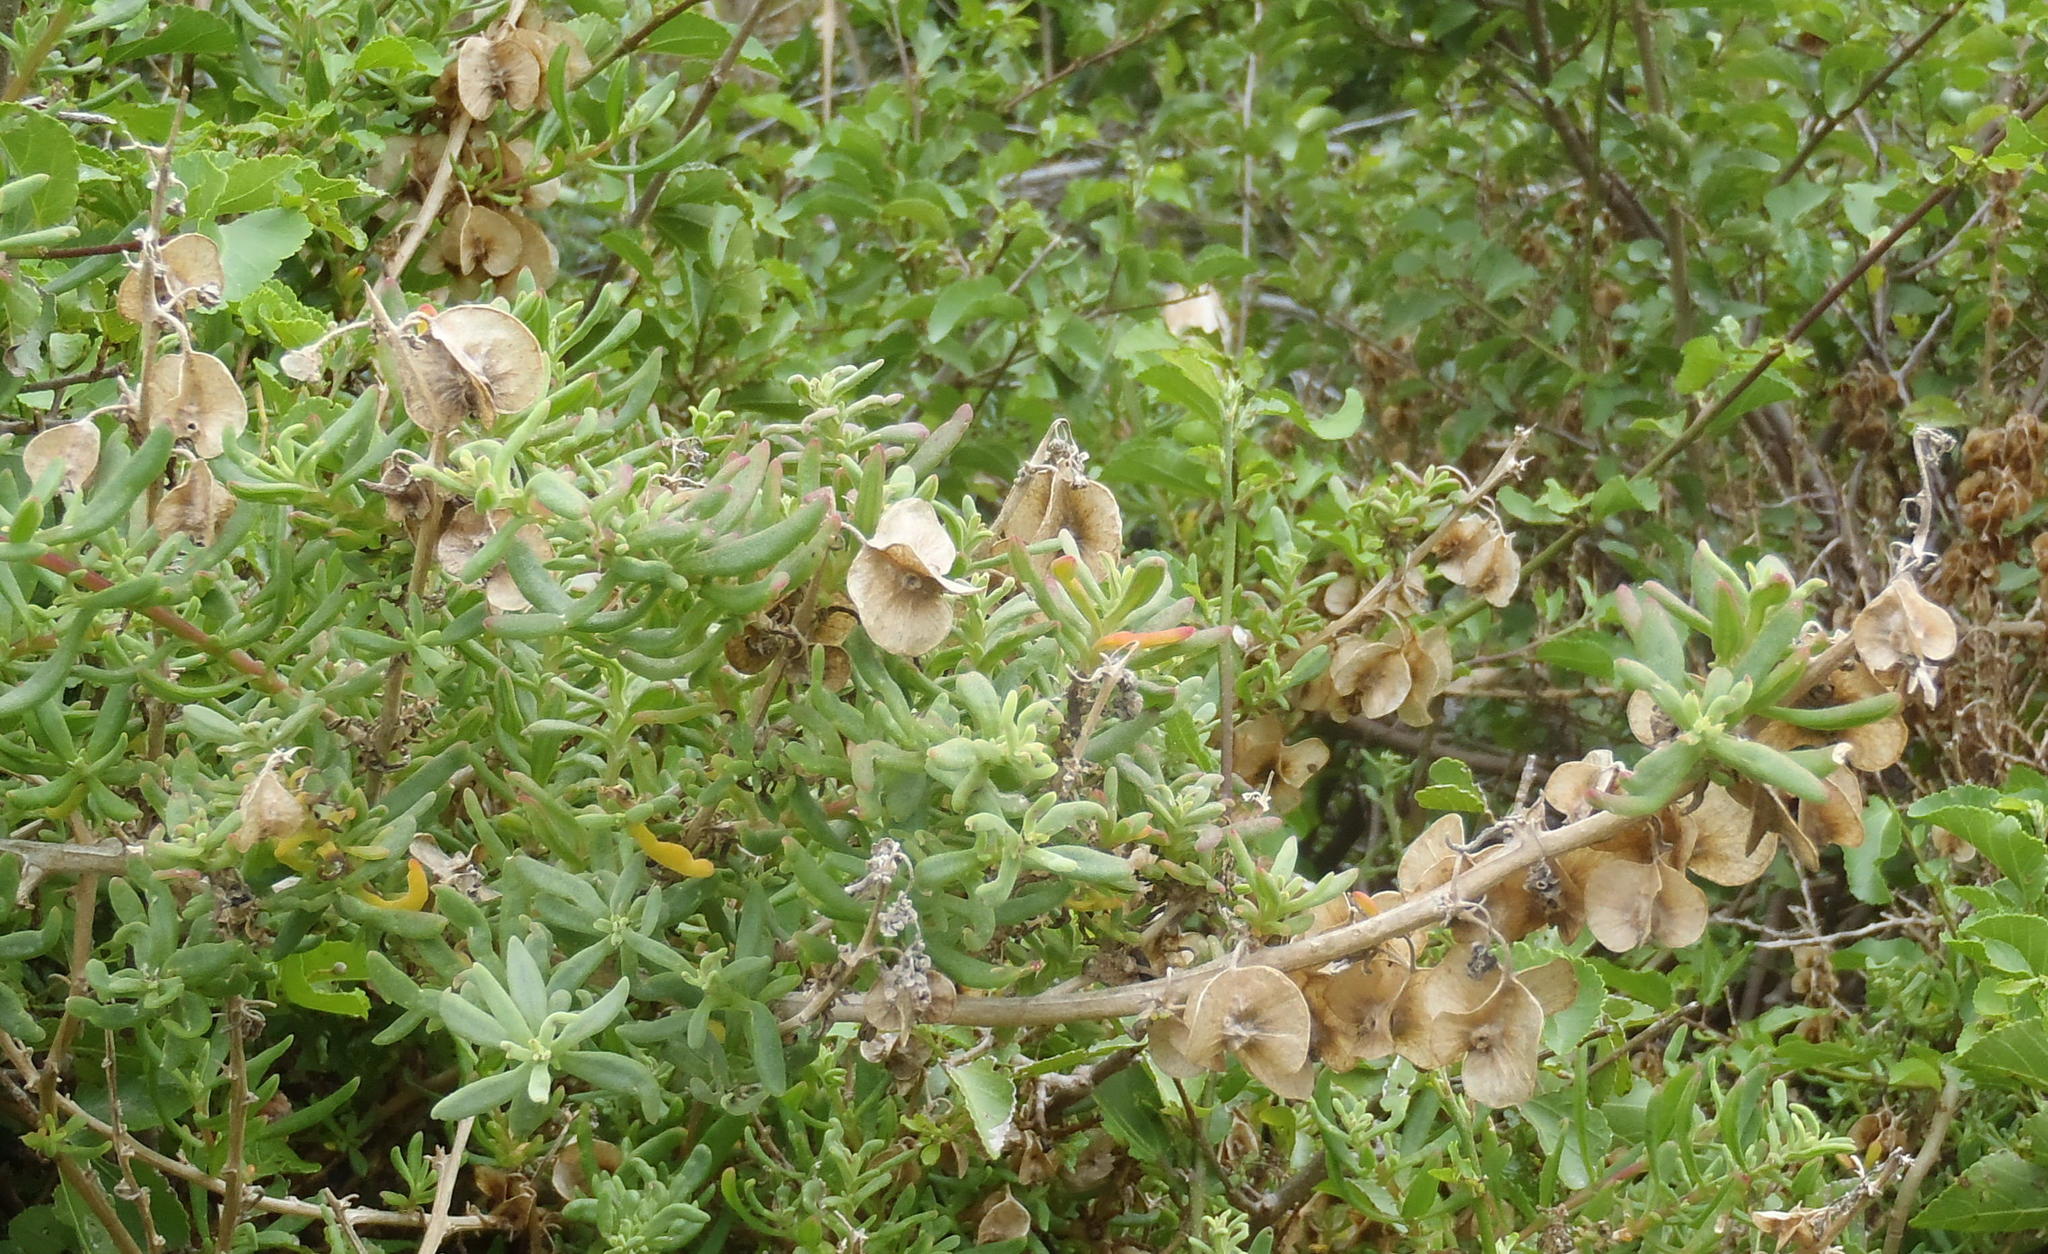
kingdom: Plantae
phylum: Tracheophyta
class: Magnoliopsida
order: Caryophyllales
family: Aizoaceae
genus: Tetragonia
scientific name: Tetragonia fruticosa
